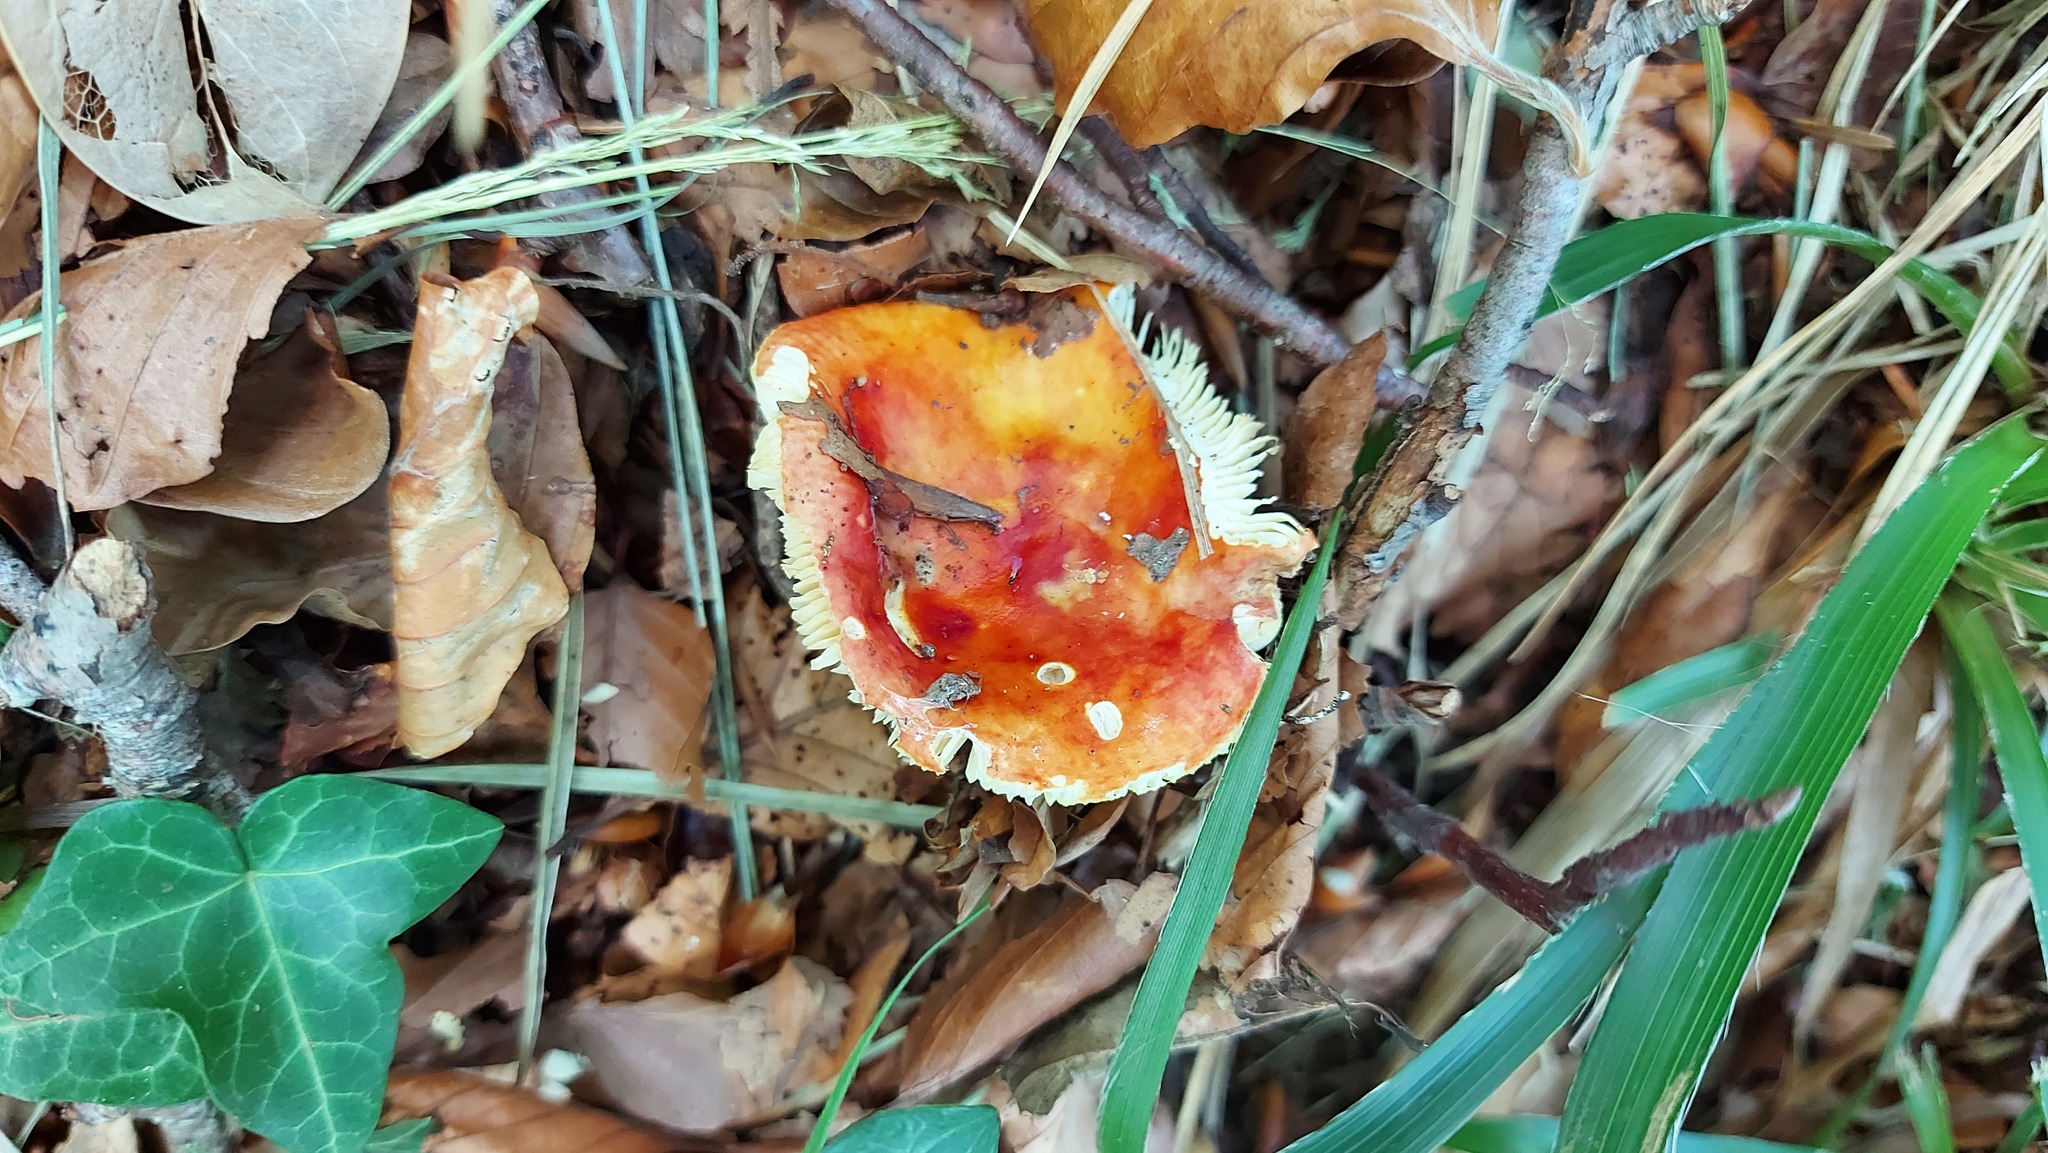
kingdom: Fungi
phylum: Basidiomycota
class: Agaricomycetes
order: Russulales
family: Russulaceae
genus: Russula
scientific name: Russula aurea
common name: Gilded brittlegill
